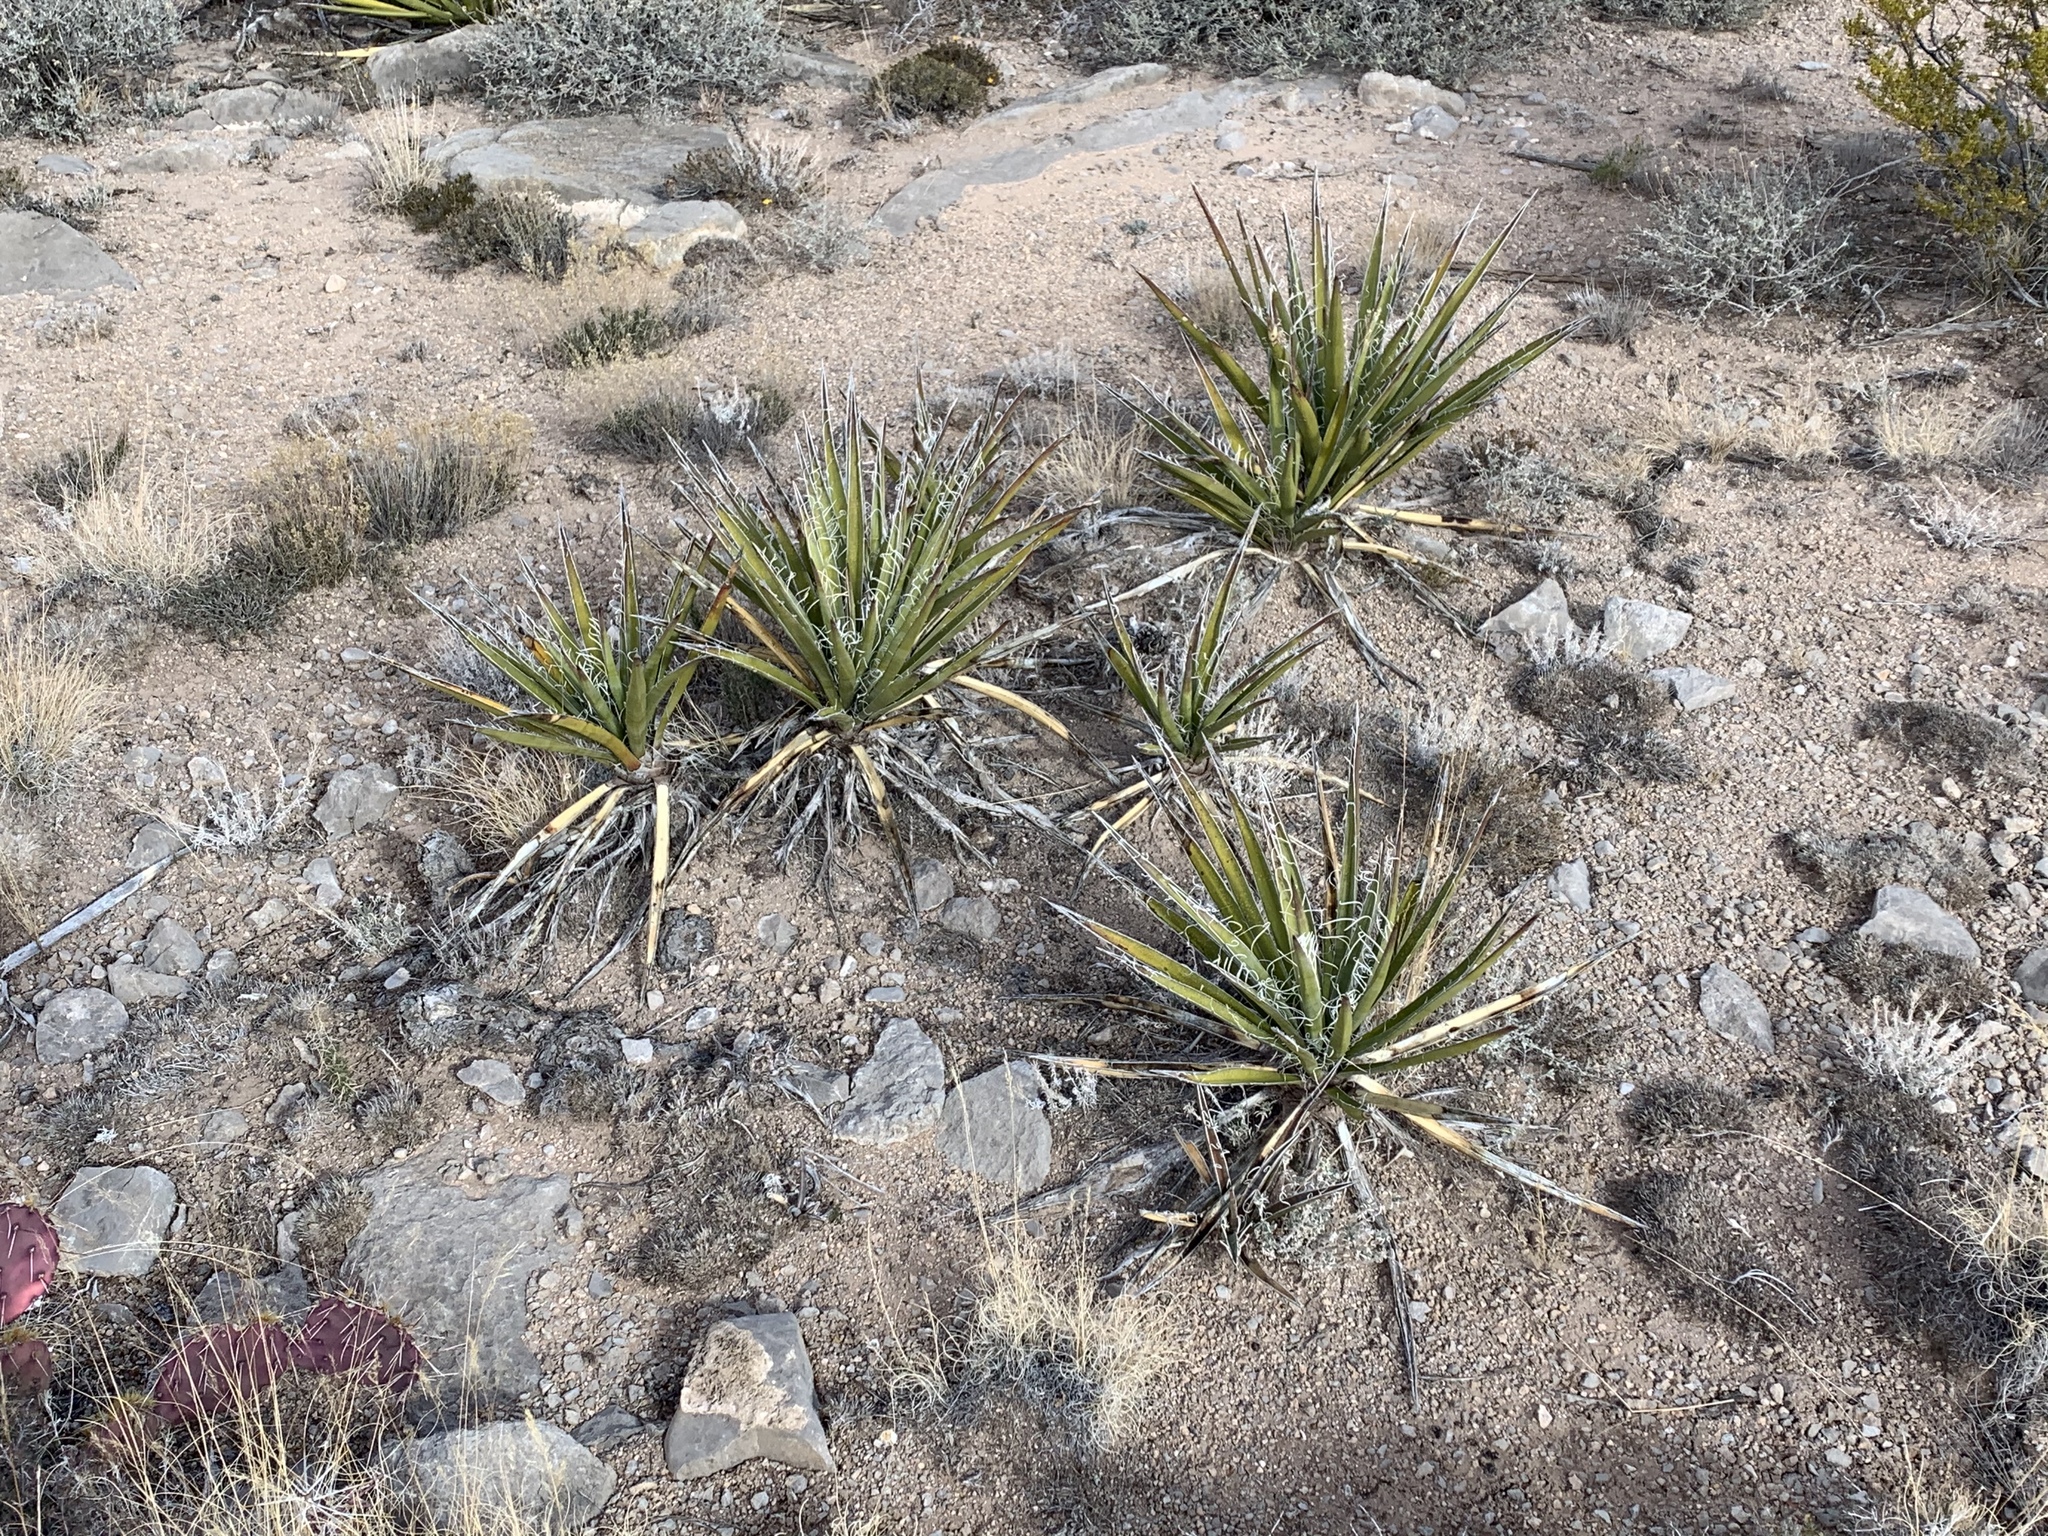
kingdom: Plantae
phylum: Tracheophyta
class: Liliopsida
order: Asparagales
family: Asparagaceae
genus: Yucca
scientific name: Yucca baccata
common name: Banana yucca
